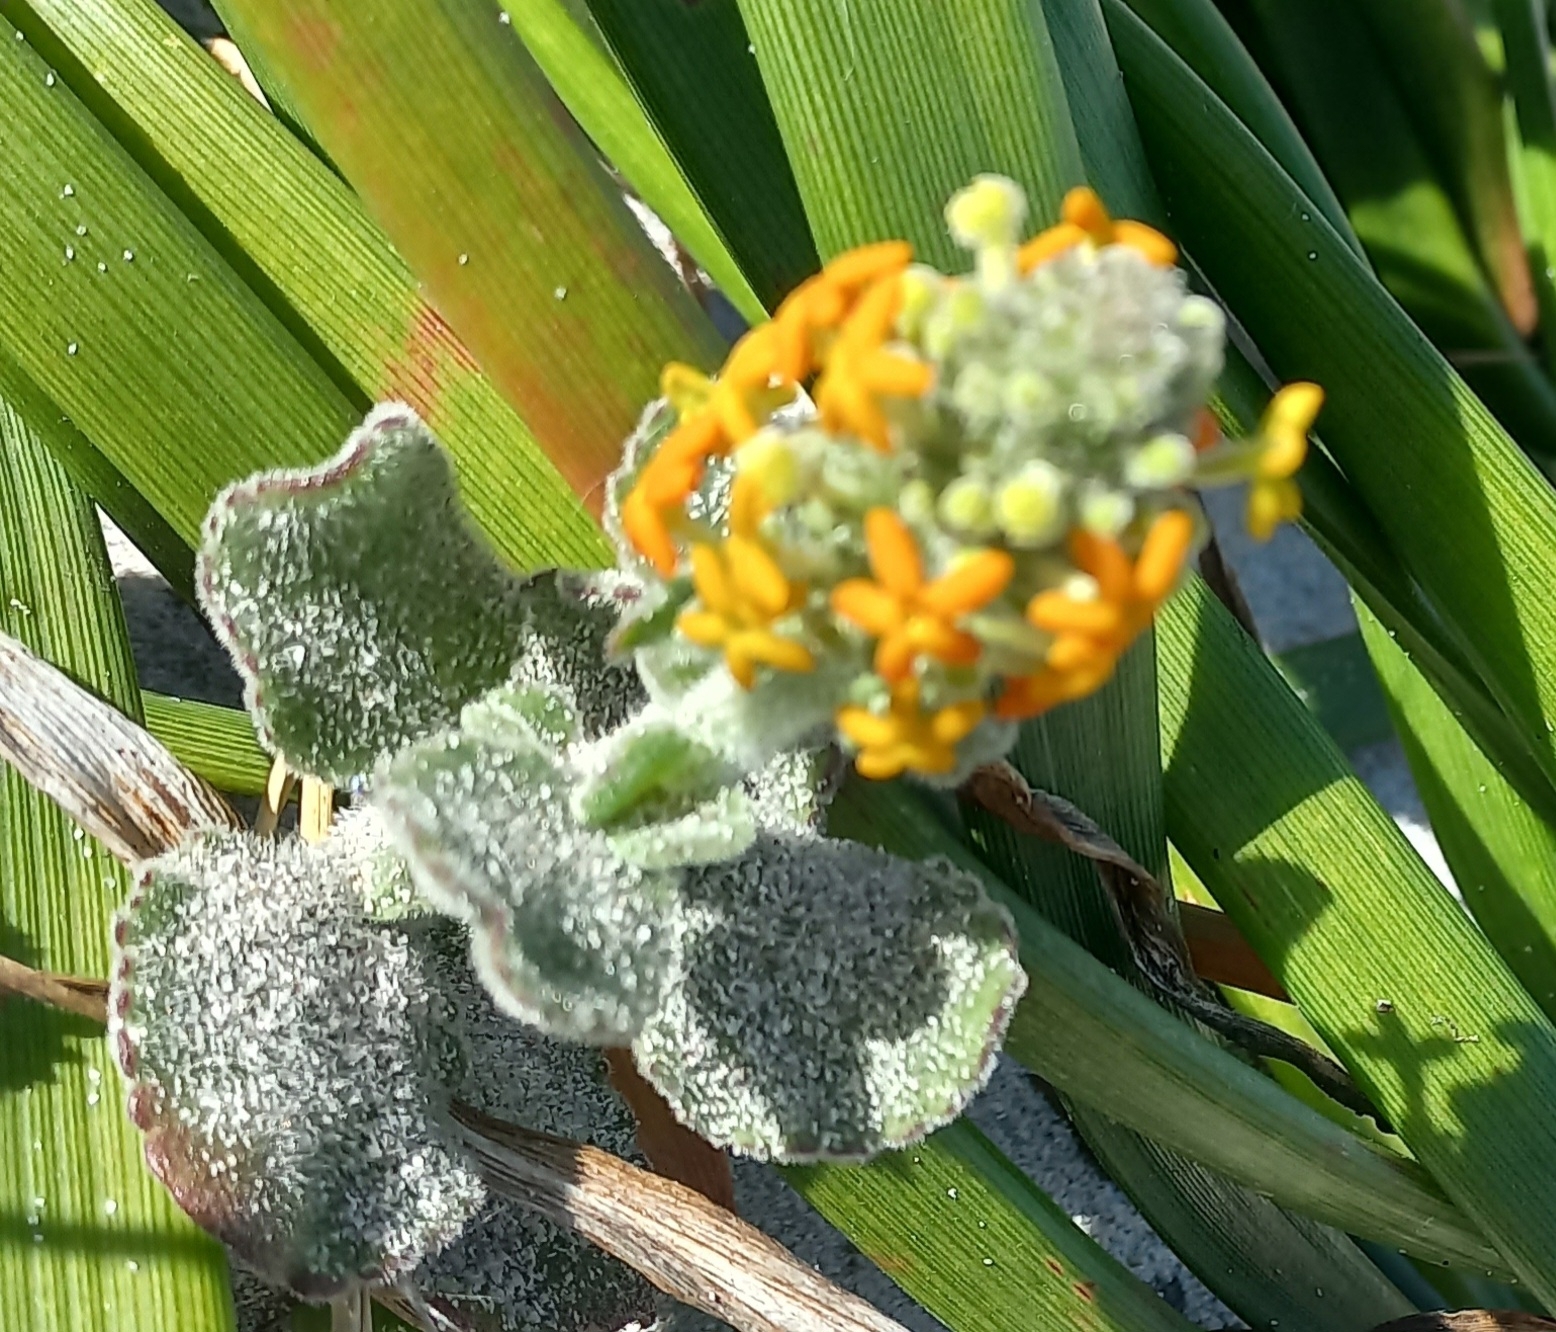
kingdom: Plantae
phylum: Tracheophyta
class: Magnoliopsida
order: Lamiales
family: Scrophulariaceae
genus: Manulea
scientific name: Manulea tomentosa
